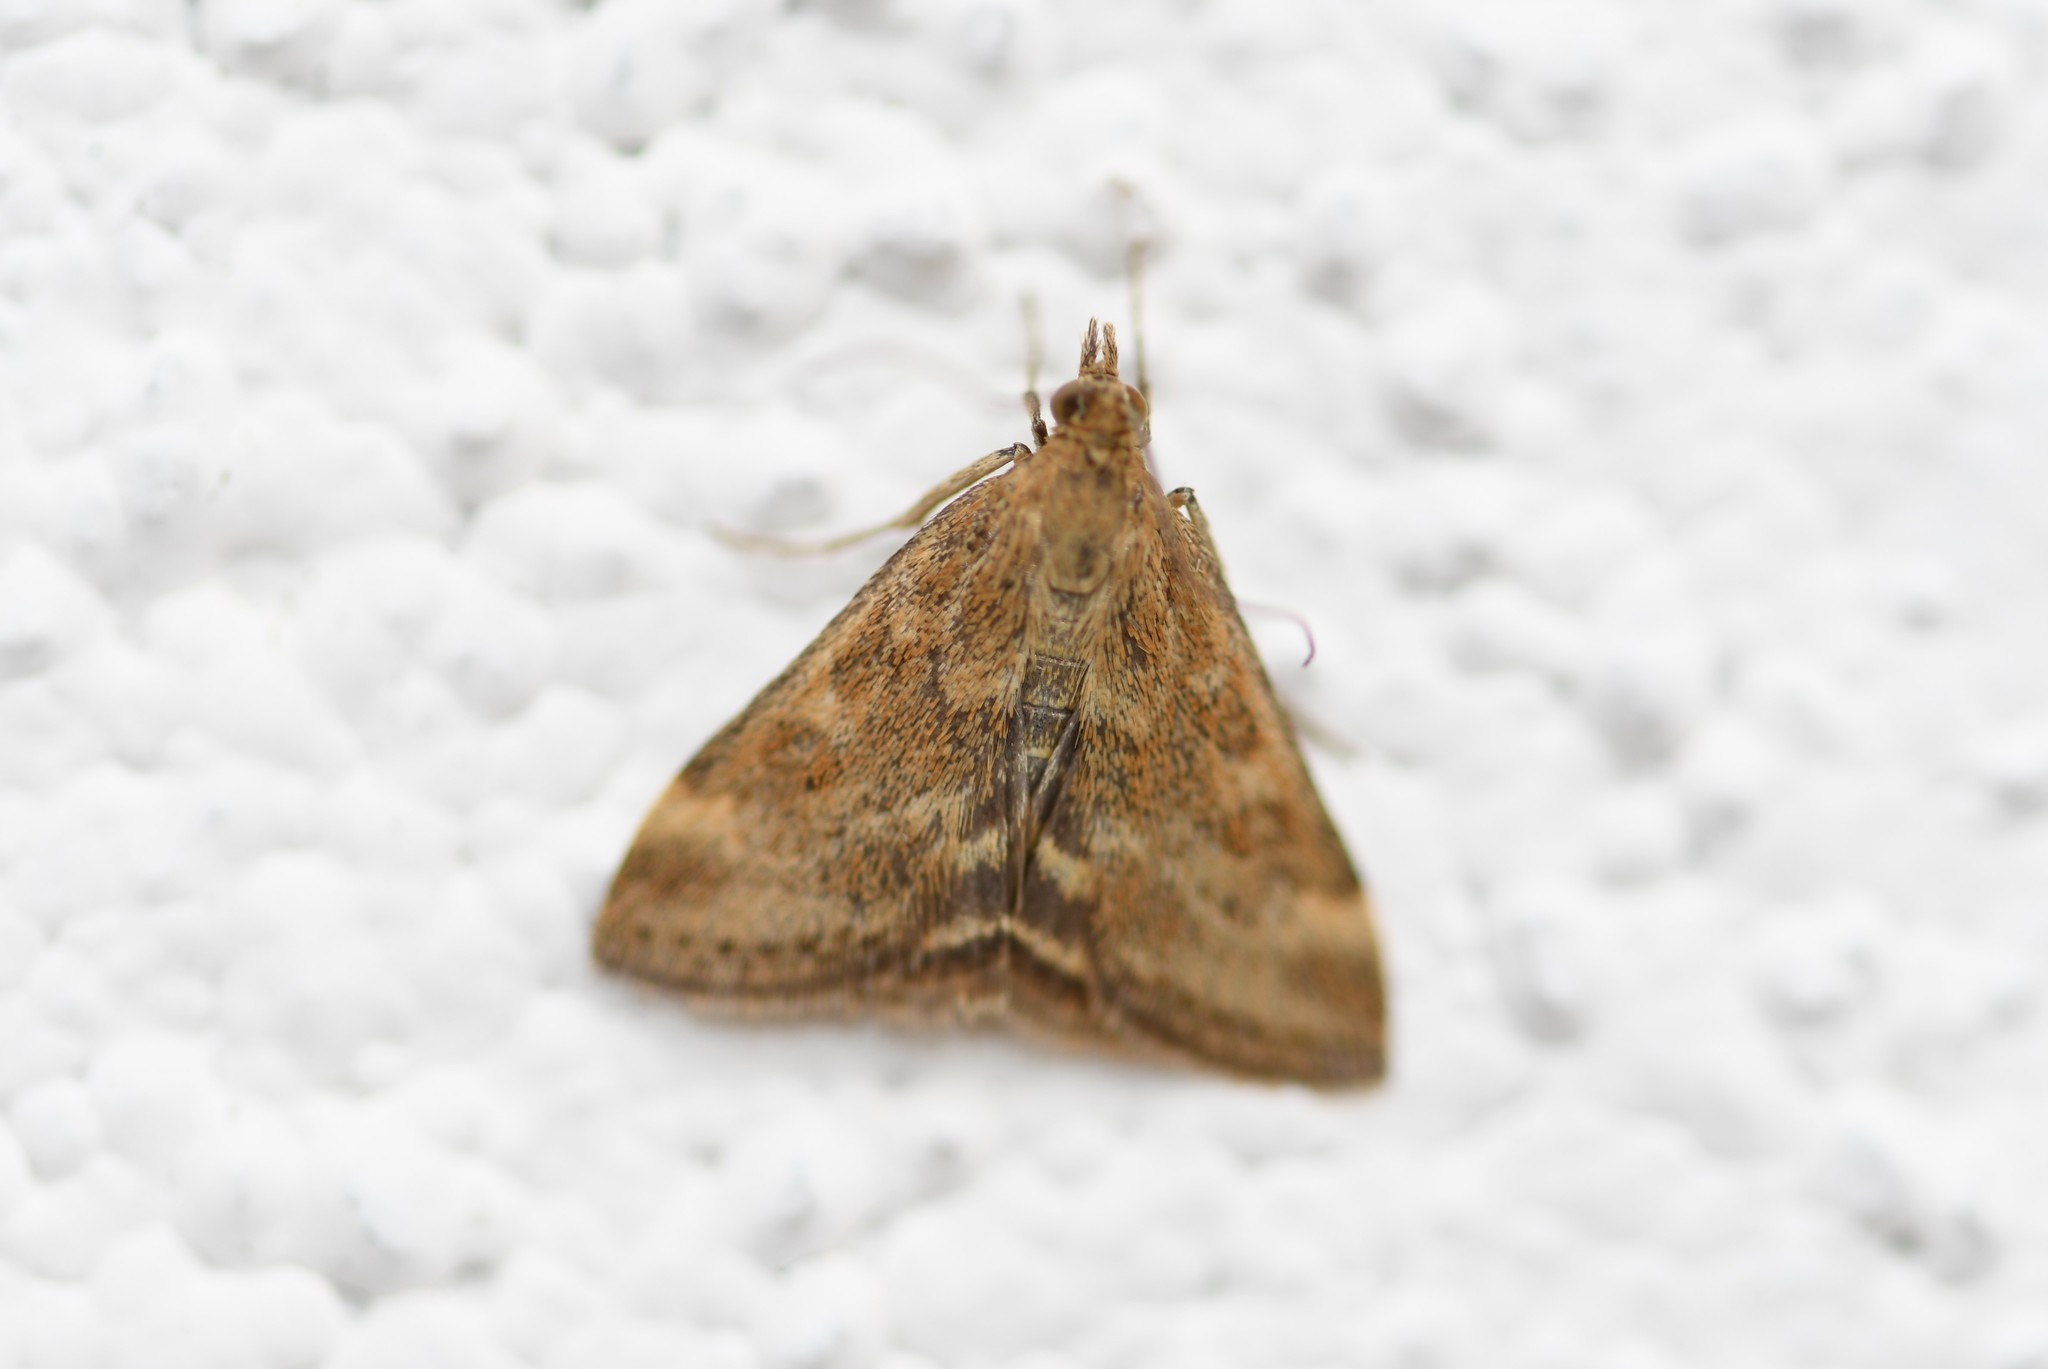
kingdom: Animalia
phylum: Arthropoda
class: Insecta
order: Lepidoptera
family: Crambidae
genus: Pyrausta
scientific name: Pyrausta despicata
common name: Straw-barred pearl
